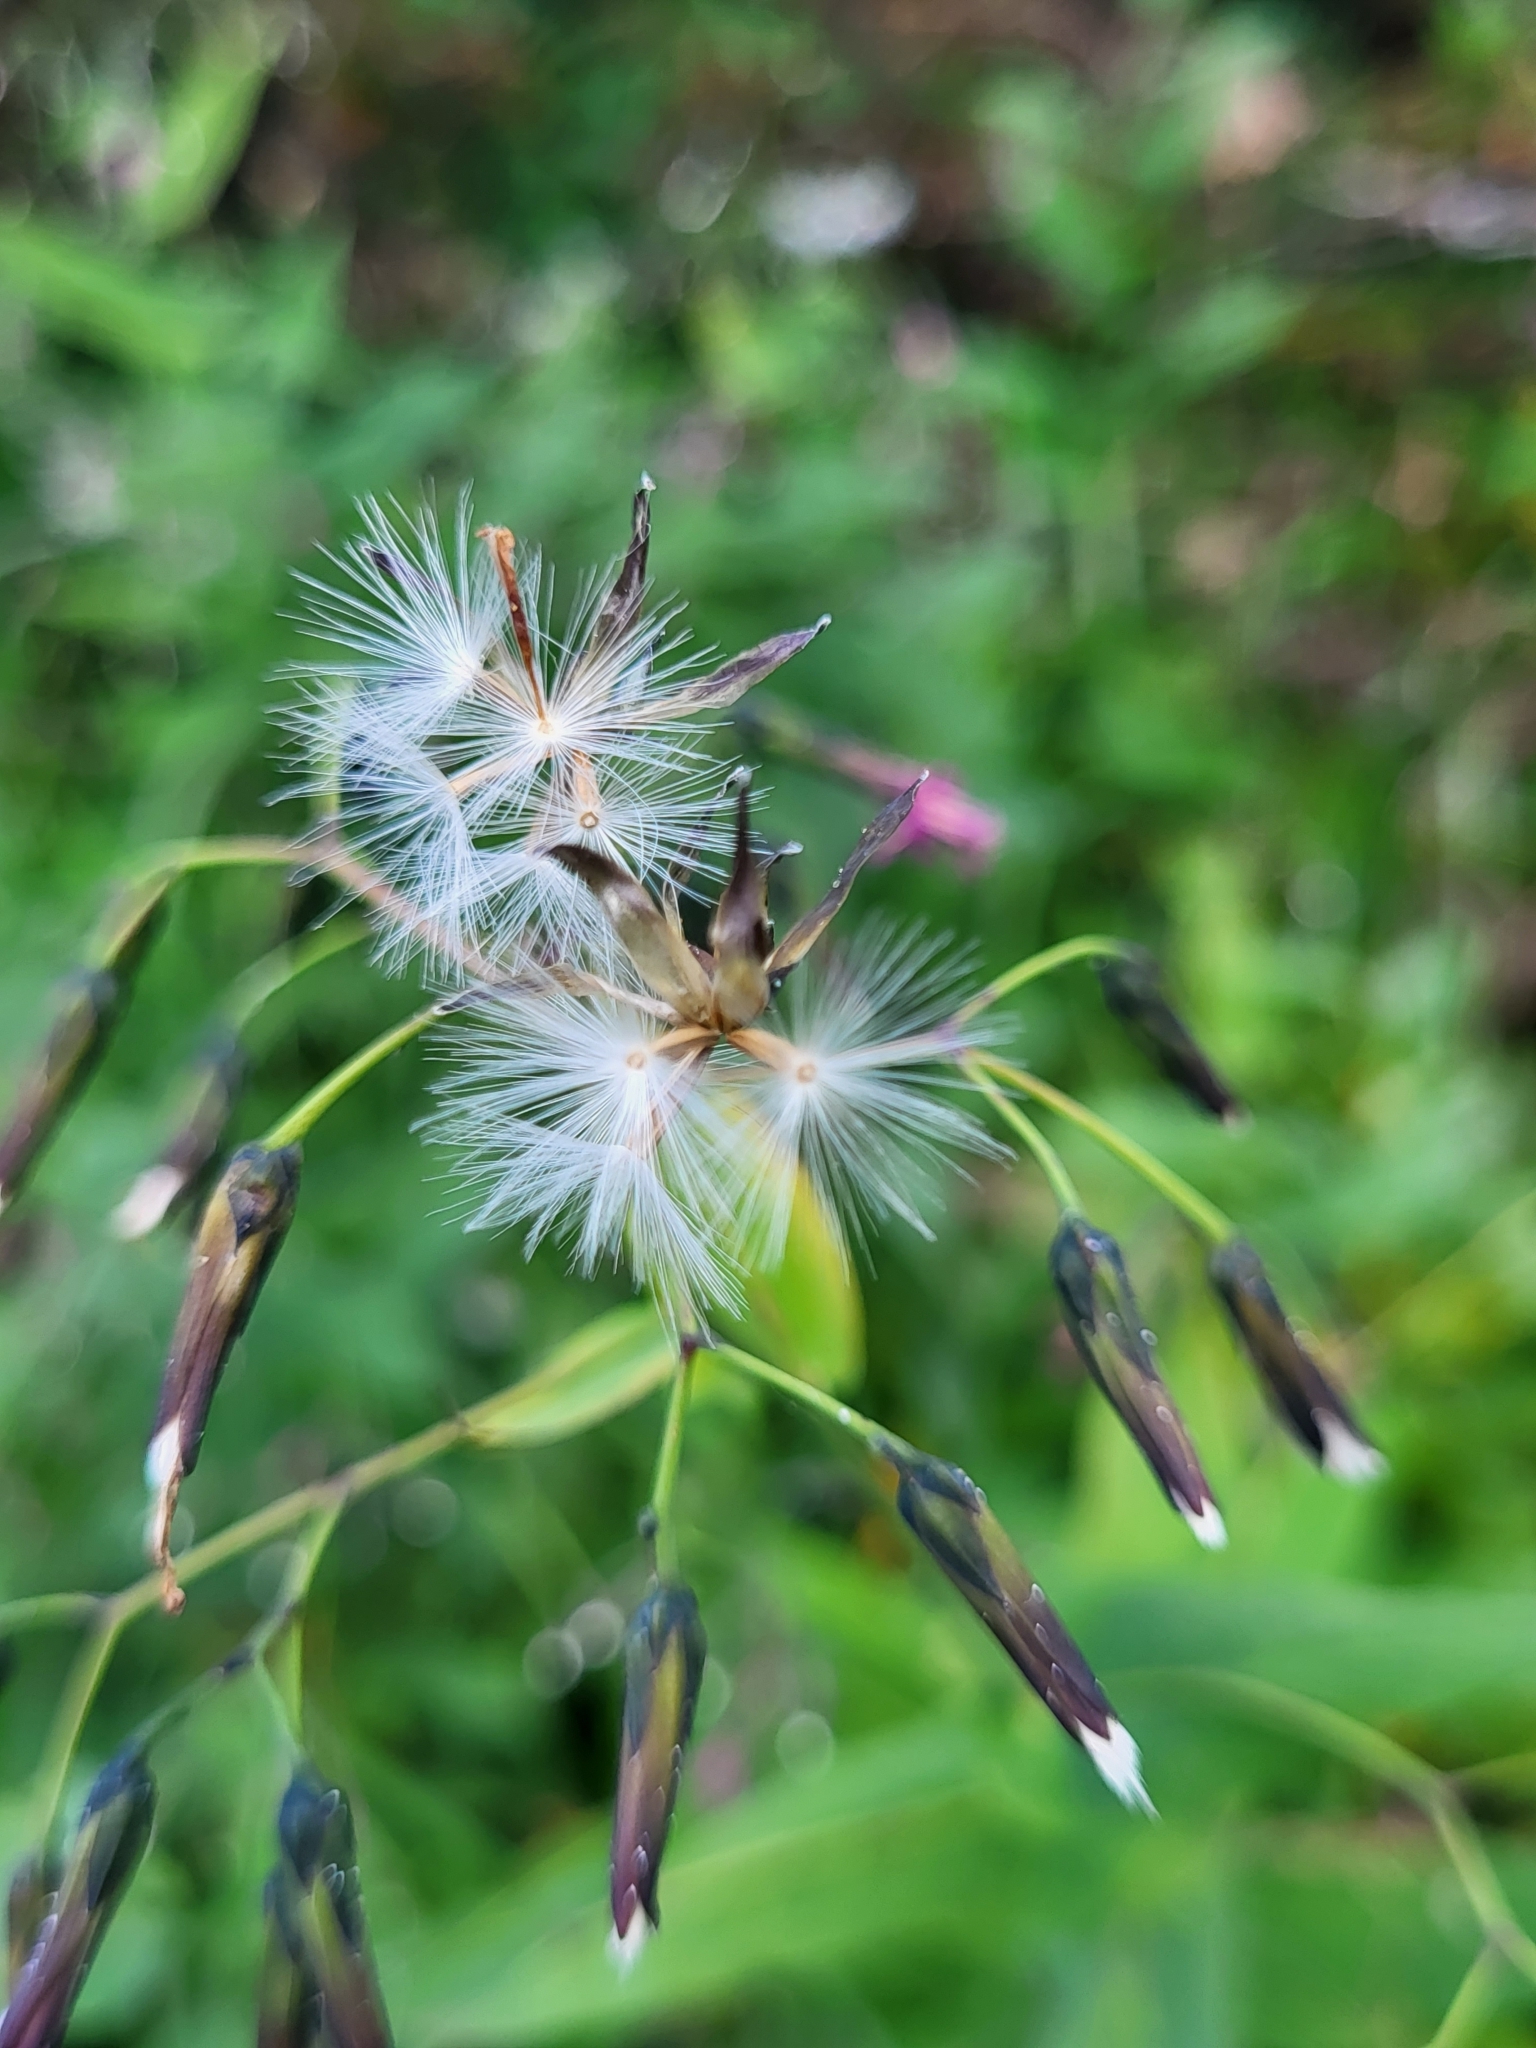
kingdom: Plantae
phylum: Tracheophyta
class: Magnoliopsida
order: Asterales
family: Asteraceae
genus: Prenanthes
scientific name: Prenanthes purpurea
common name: Purple lettuce
